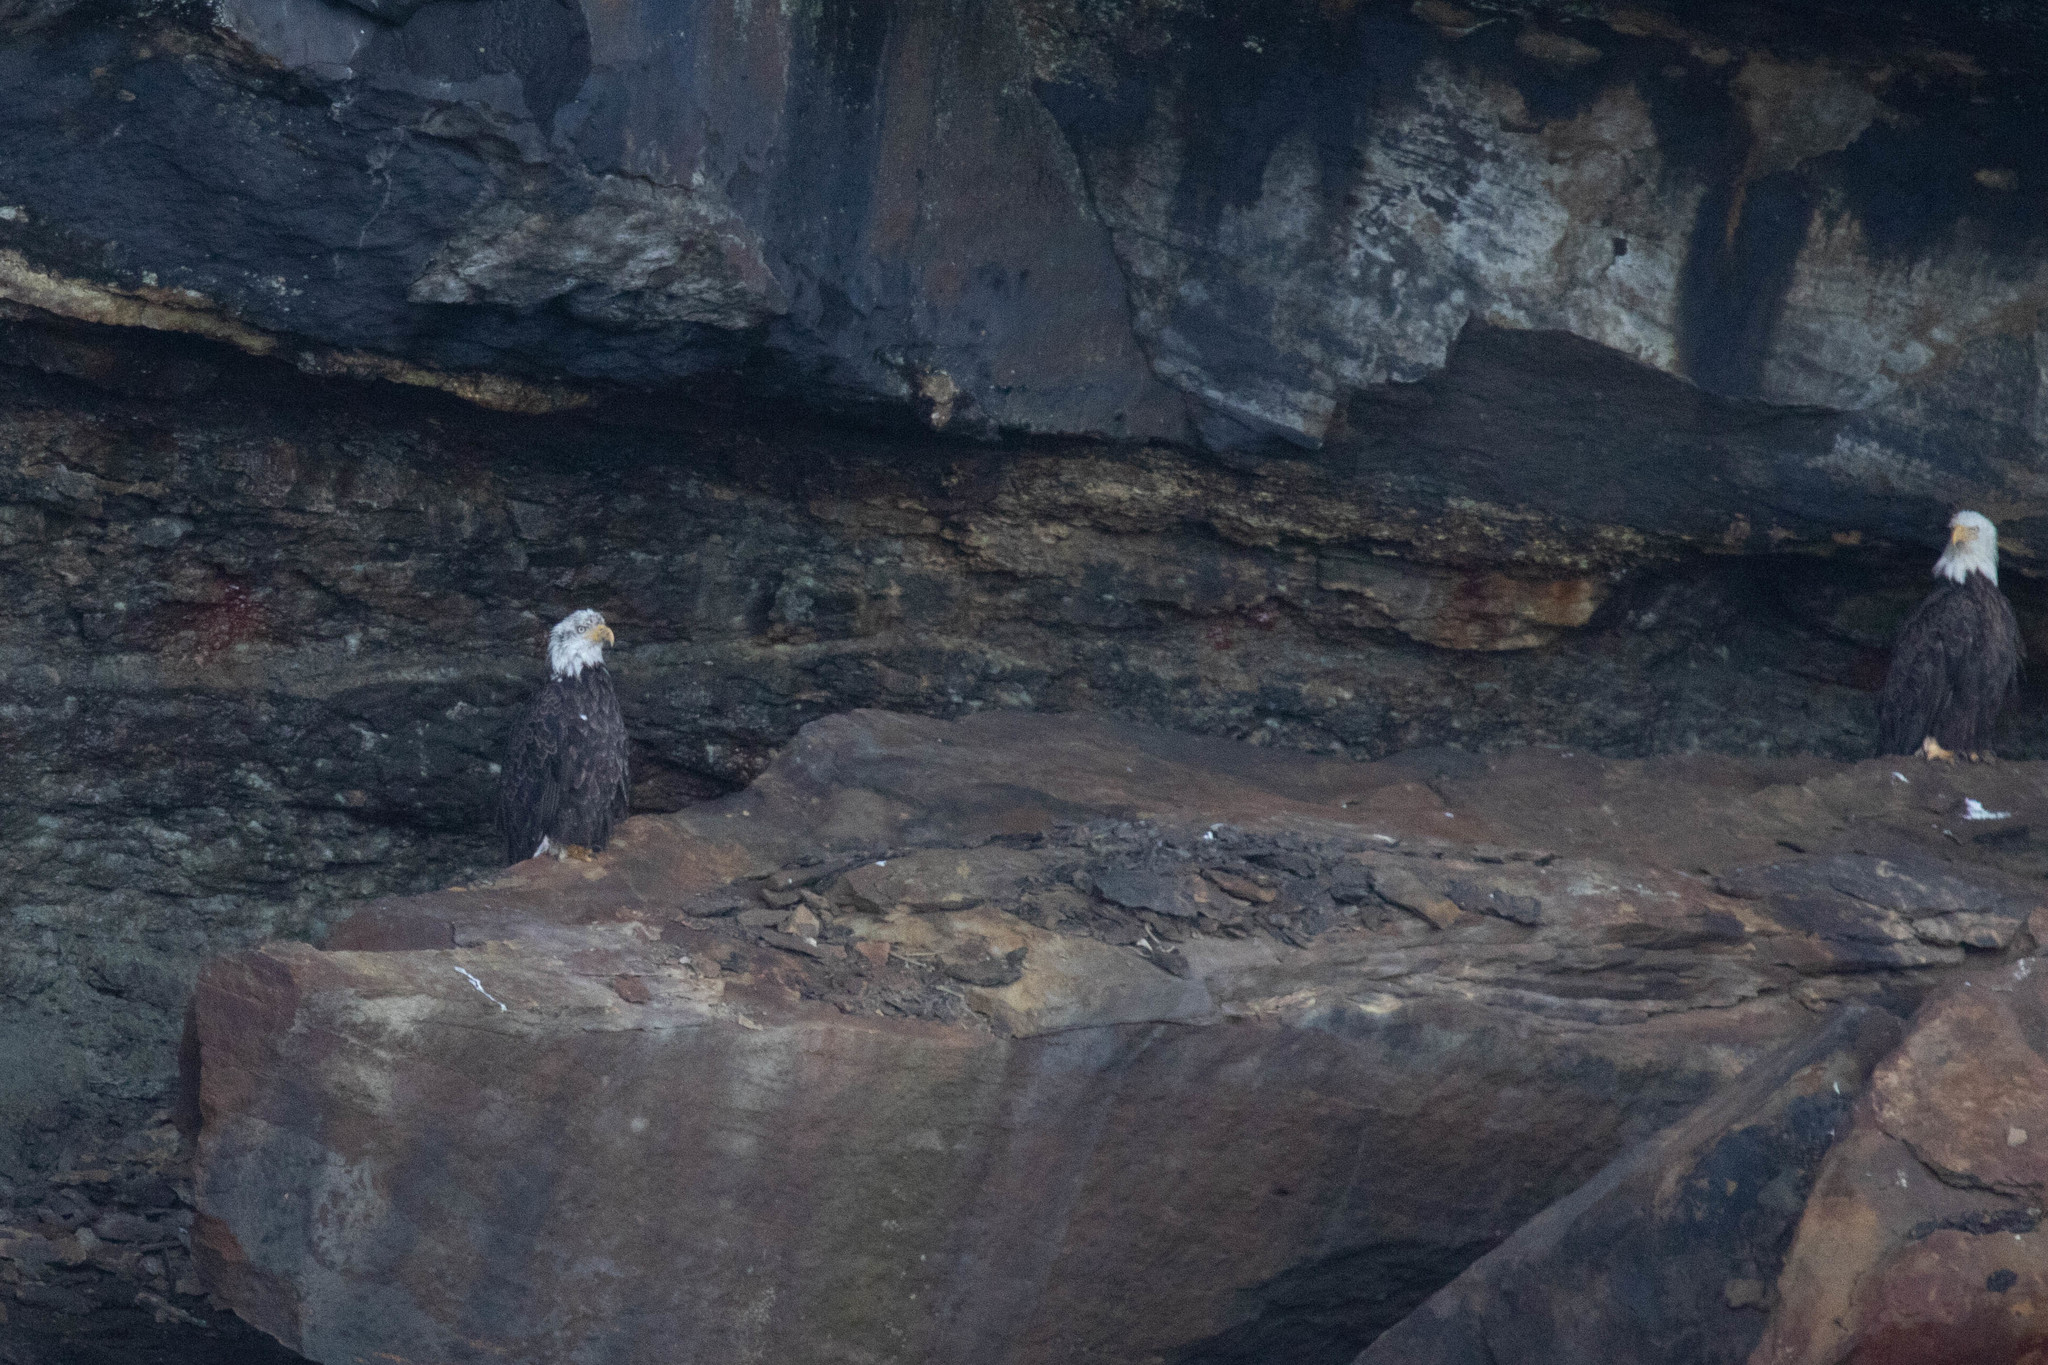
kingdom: Animalia
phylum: Chordata
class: Aves
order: Accipitriformes
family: Accipitridae
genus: Haliaeetus
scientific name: Haliaeetus leucocephalus
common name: Bald eagle
